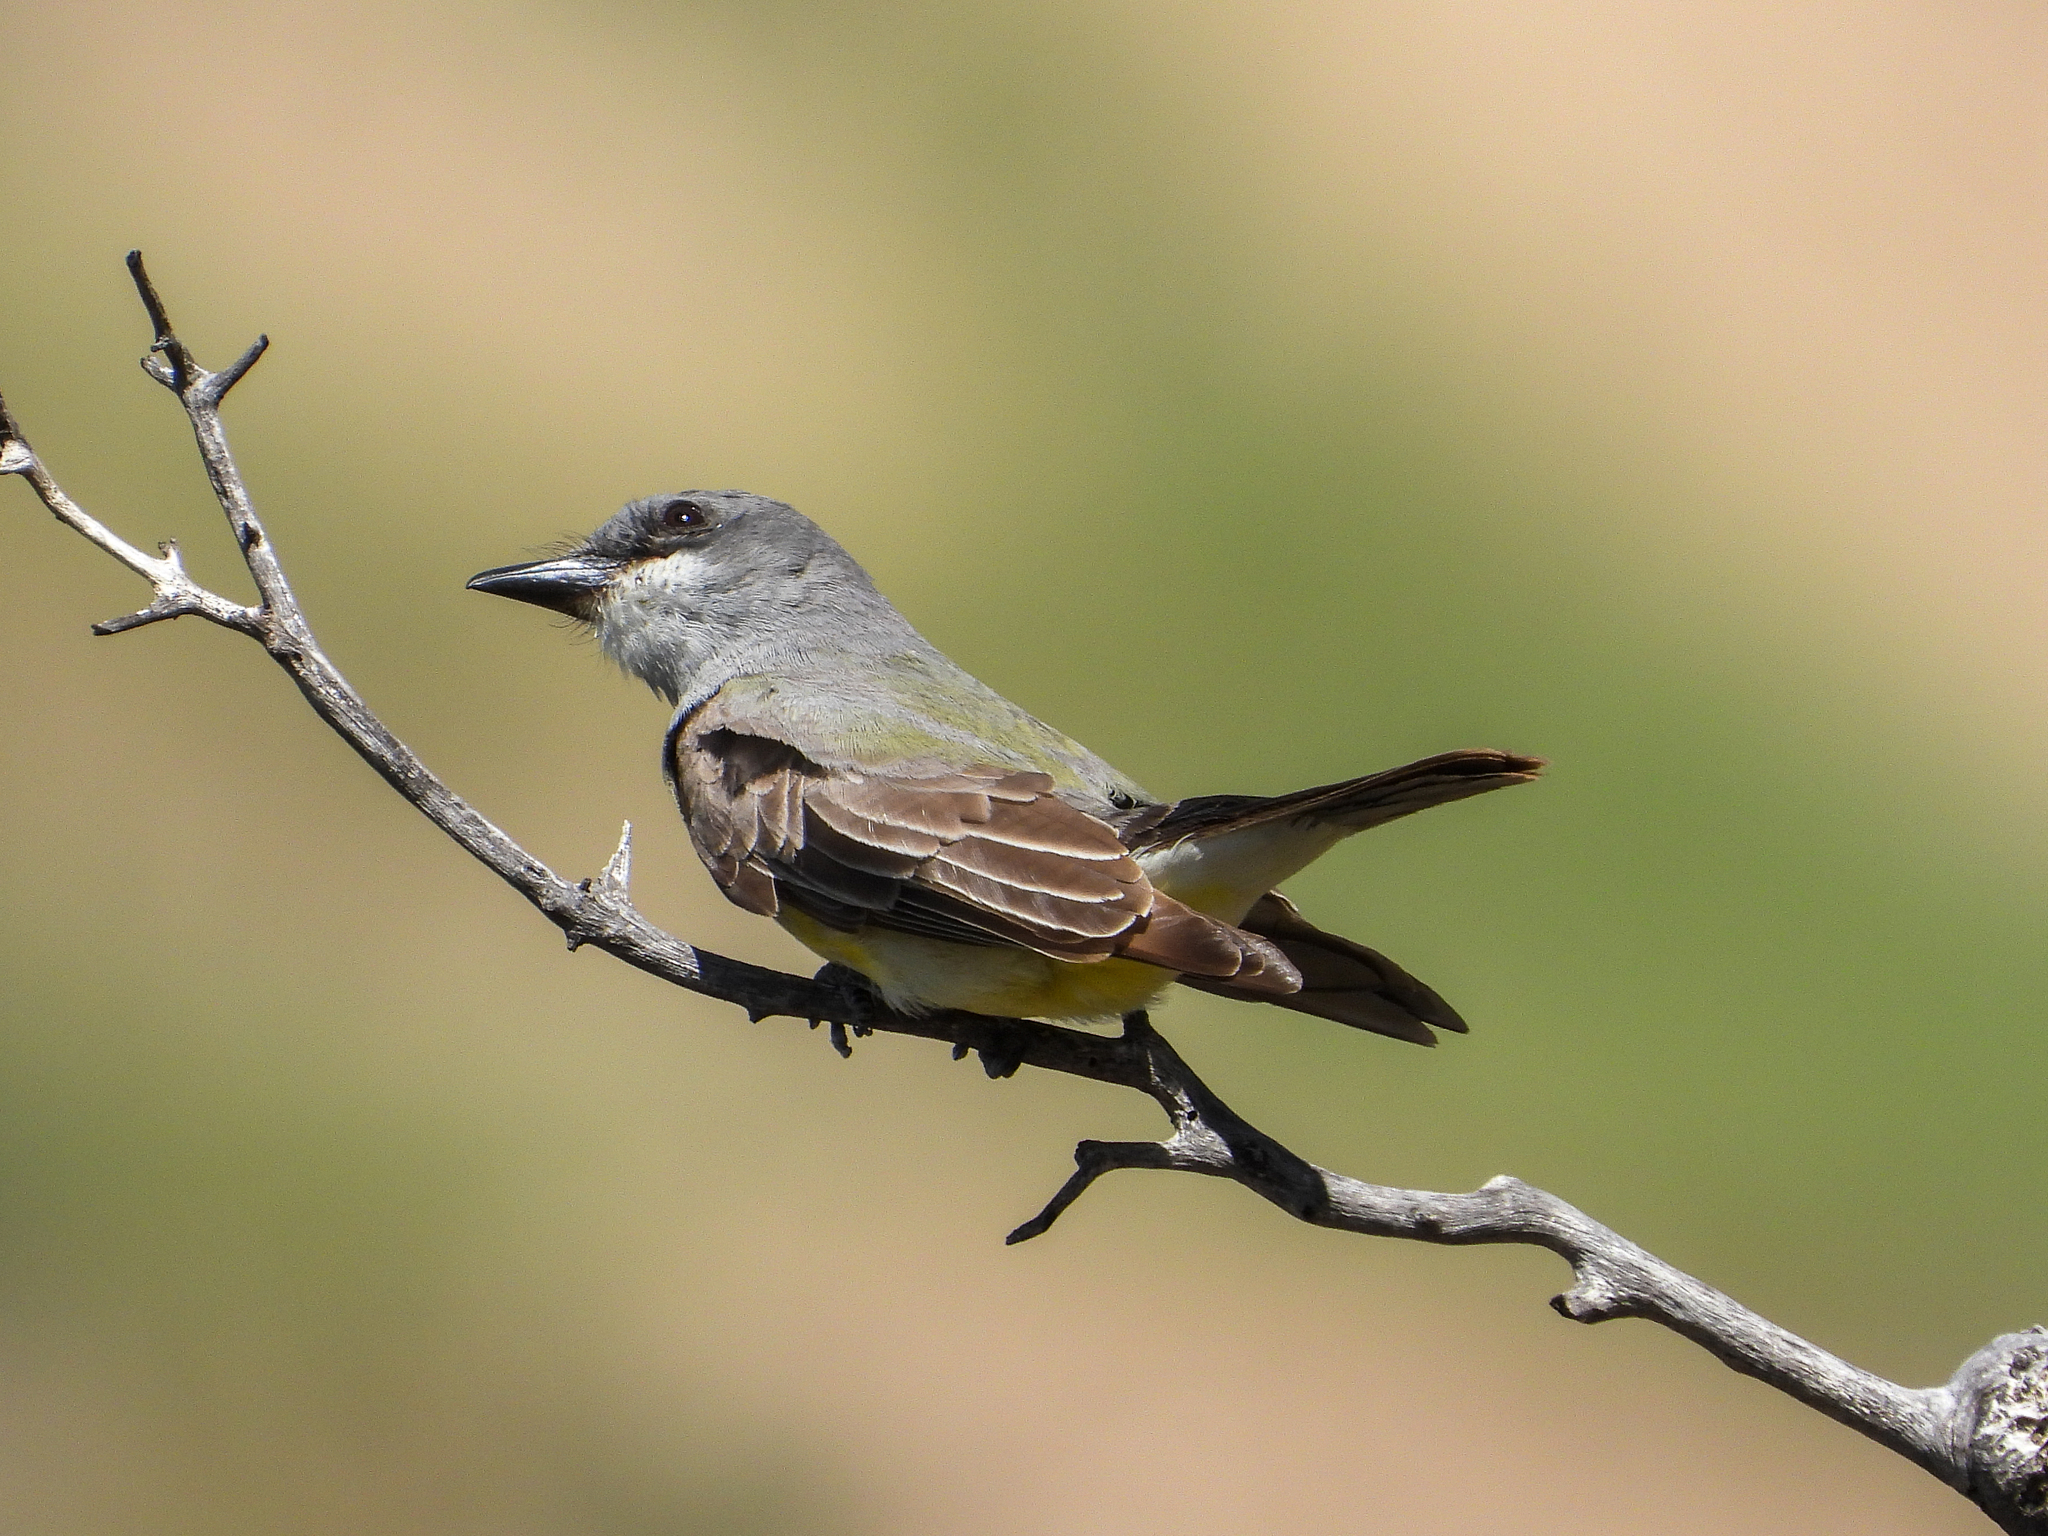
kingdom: Animalia
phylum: Chordata
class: Aves
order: Passeriformes
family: Tyrannidae
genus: Tyrannus
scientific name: Tyrannus vociferans
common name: Cassin's kingbird
